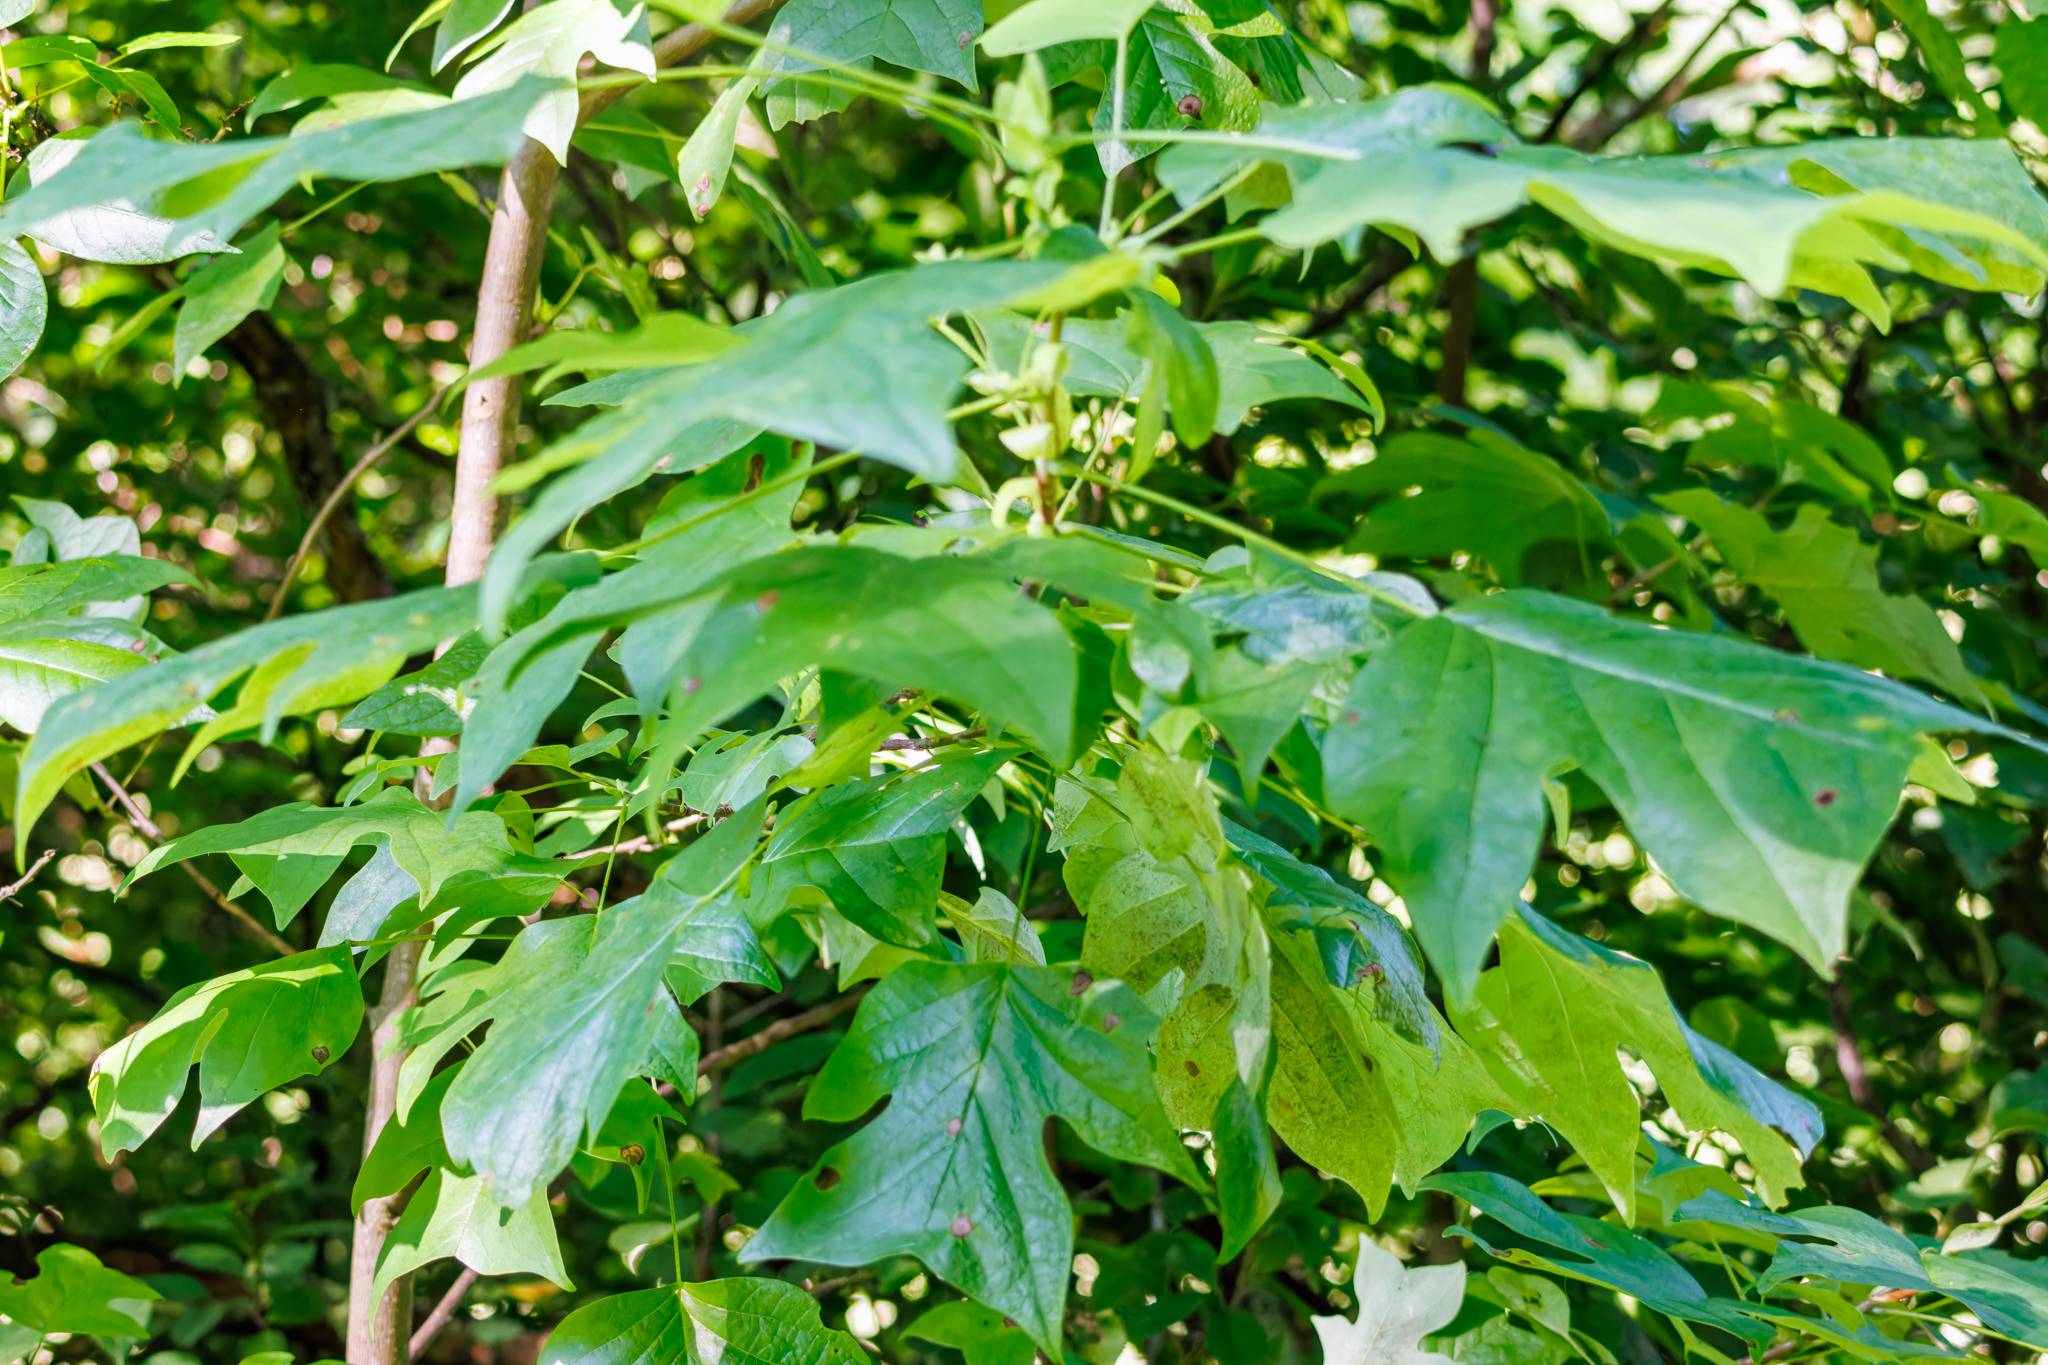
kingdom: Plantae
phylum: Tracheophyta
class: Magnoliopsida
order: Magnoliales
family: Magnoliaceae
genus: Liriodendron
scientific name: Liriodendron tulipifera
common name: Tulip tree
